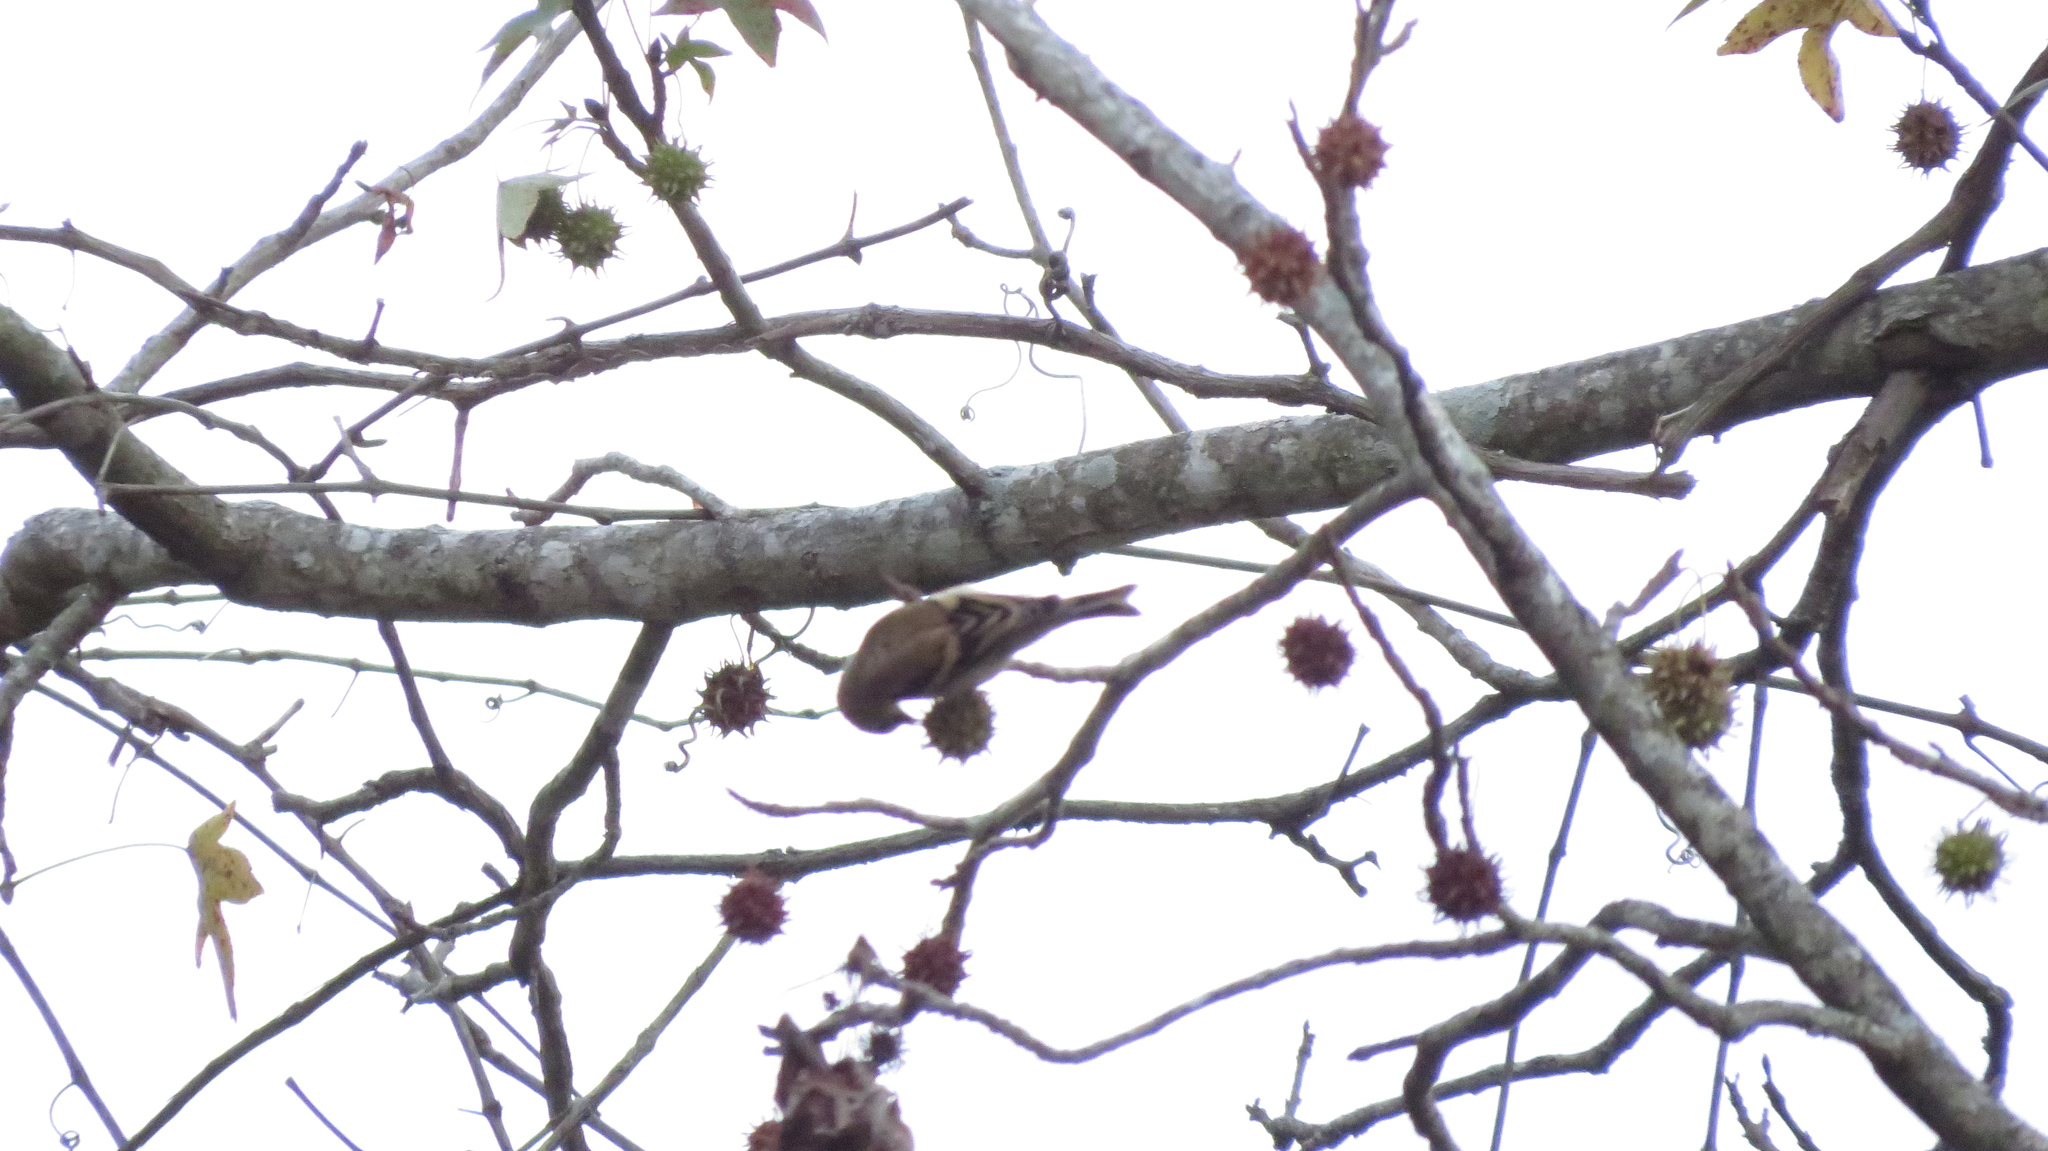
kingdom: Animalia
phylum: Chordata
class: Aves
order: Passeriformes
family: Fringillidae
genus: Spinus
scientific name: Spinus tristis
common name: American goldfinch
